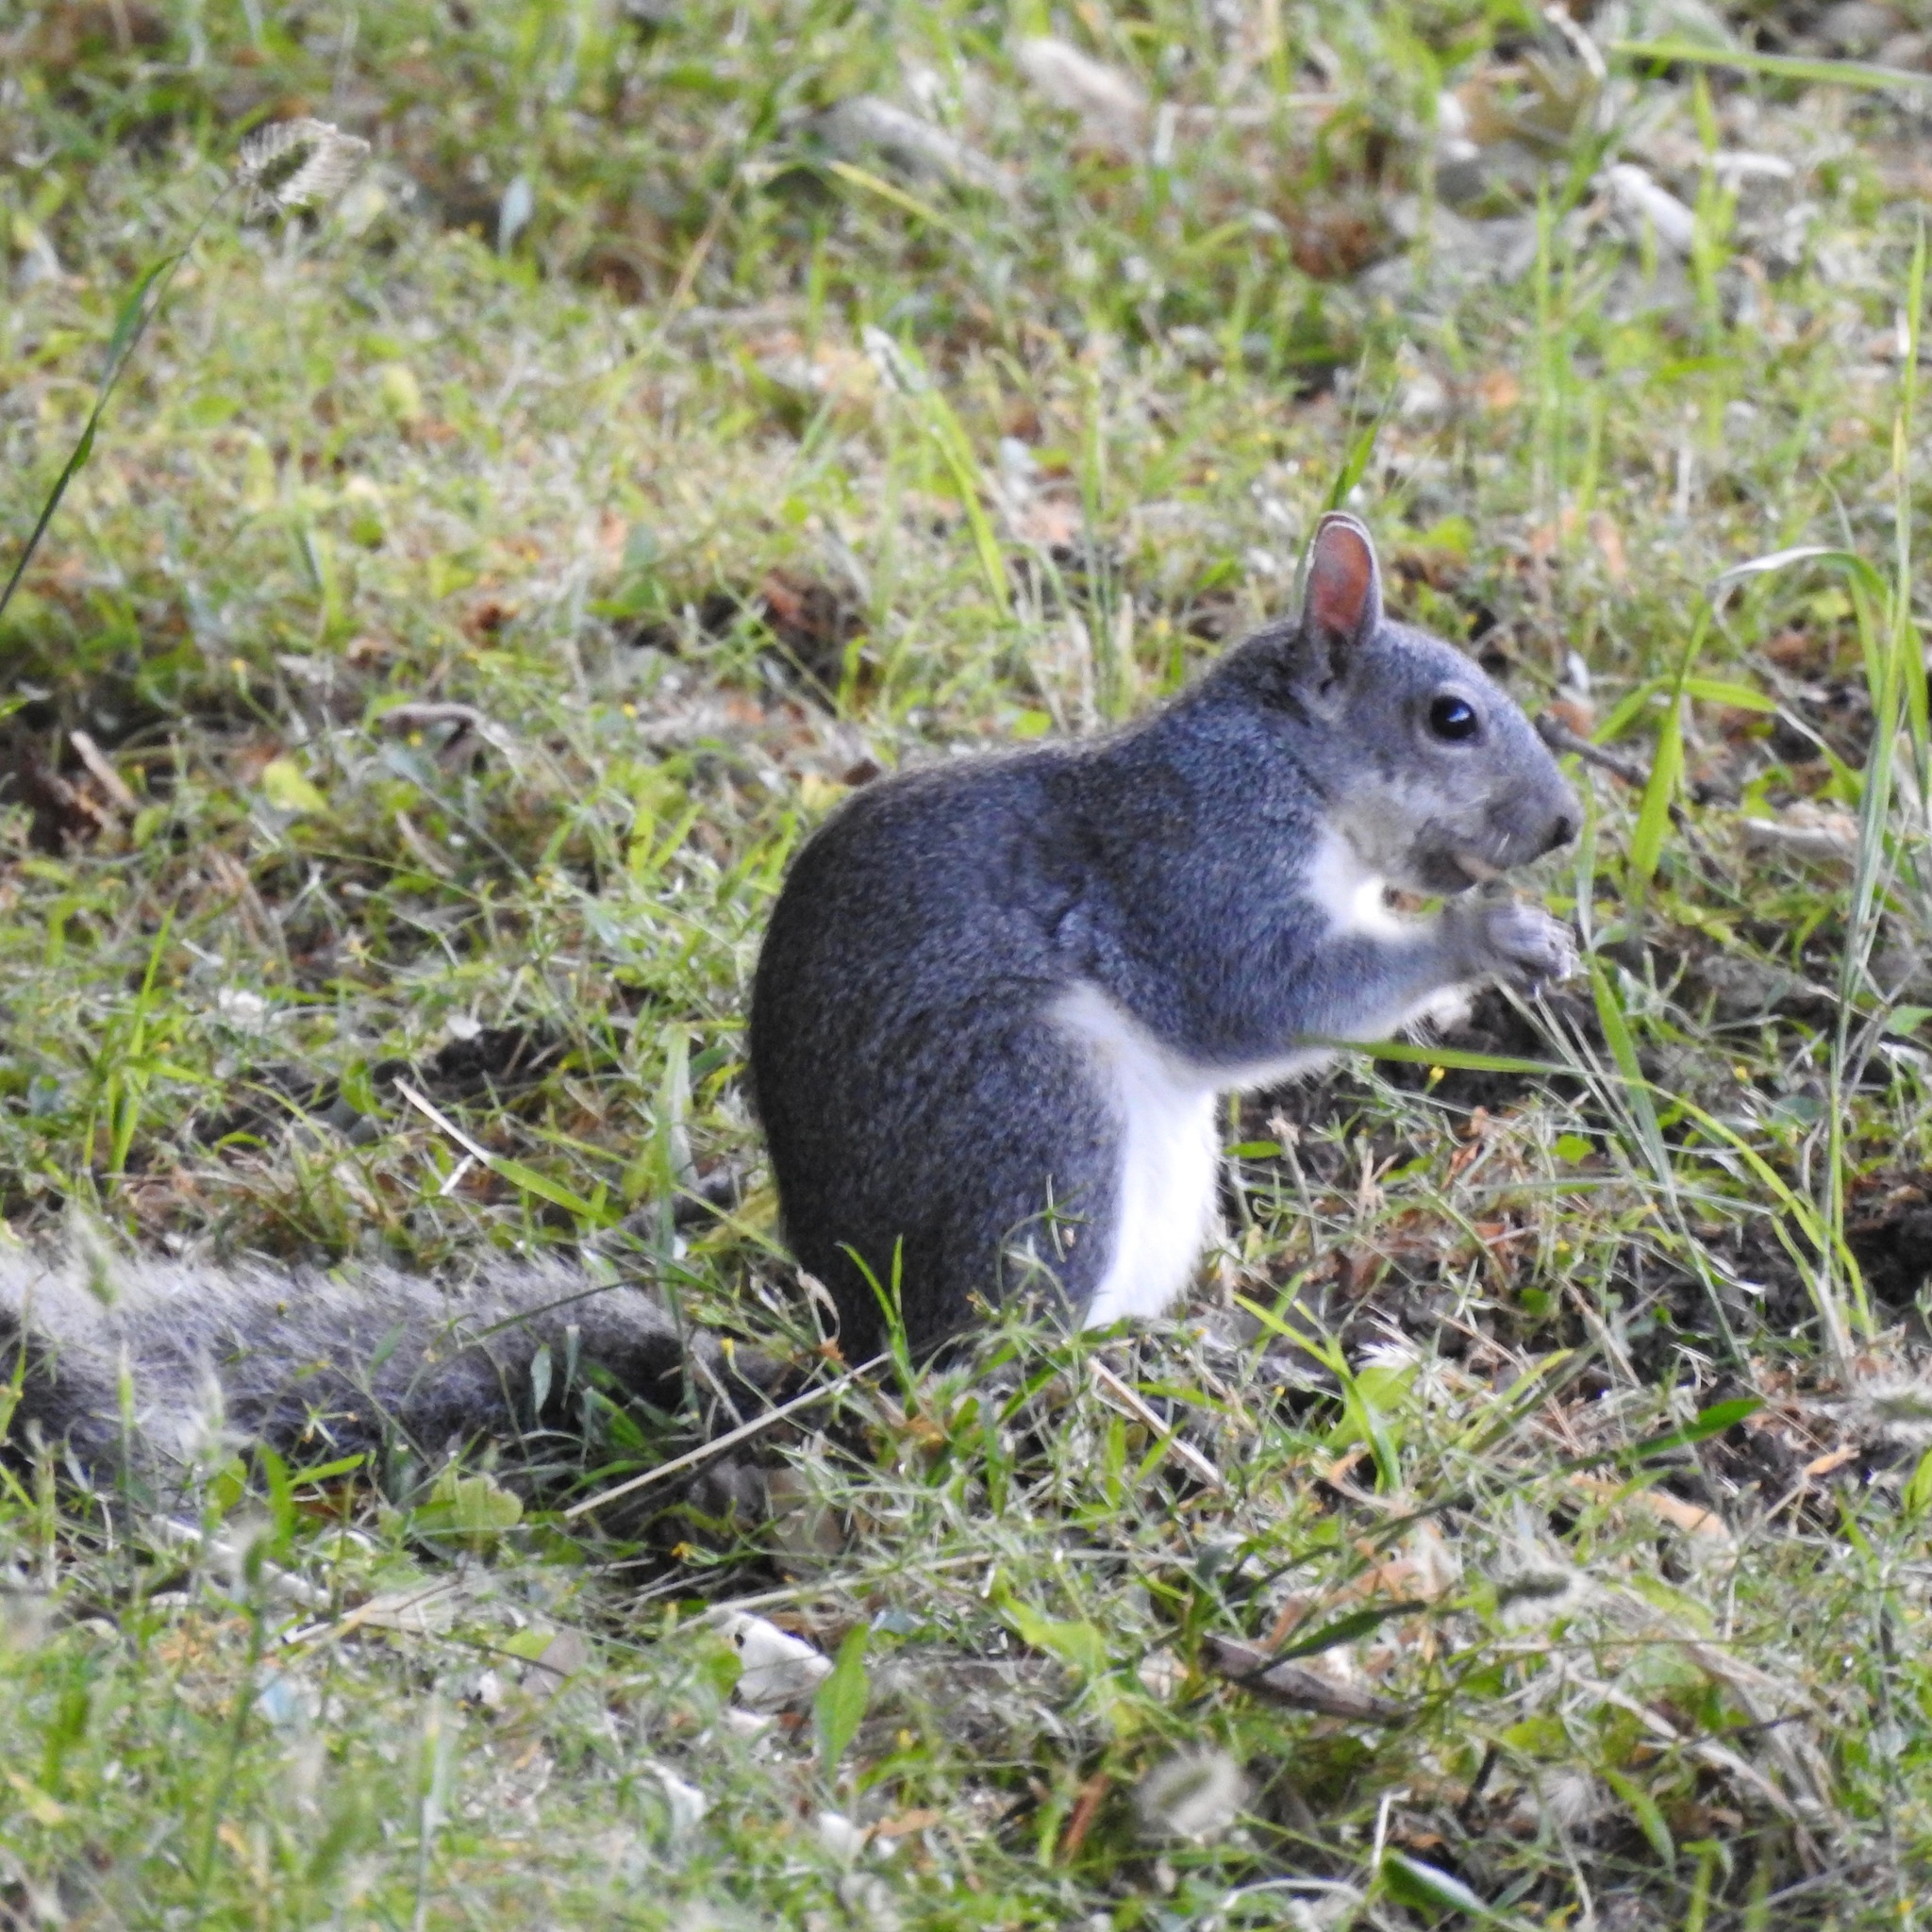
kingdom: Animalia
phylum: Chordata
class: Mammalia
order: Rodentia
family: Sciuridae
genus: Sciurus
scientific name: Sciurus griseus
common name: Western gray squirrel
